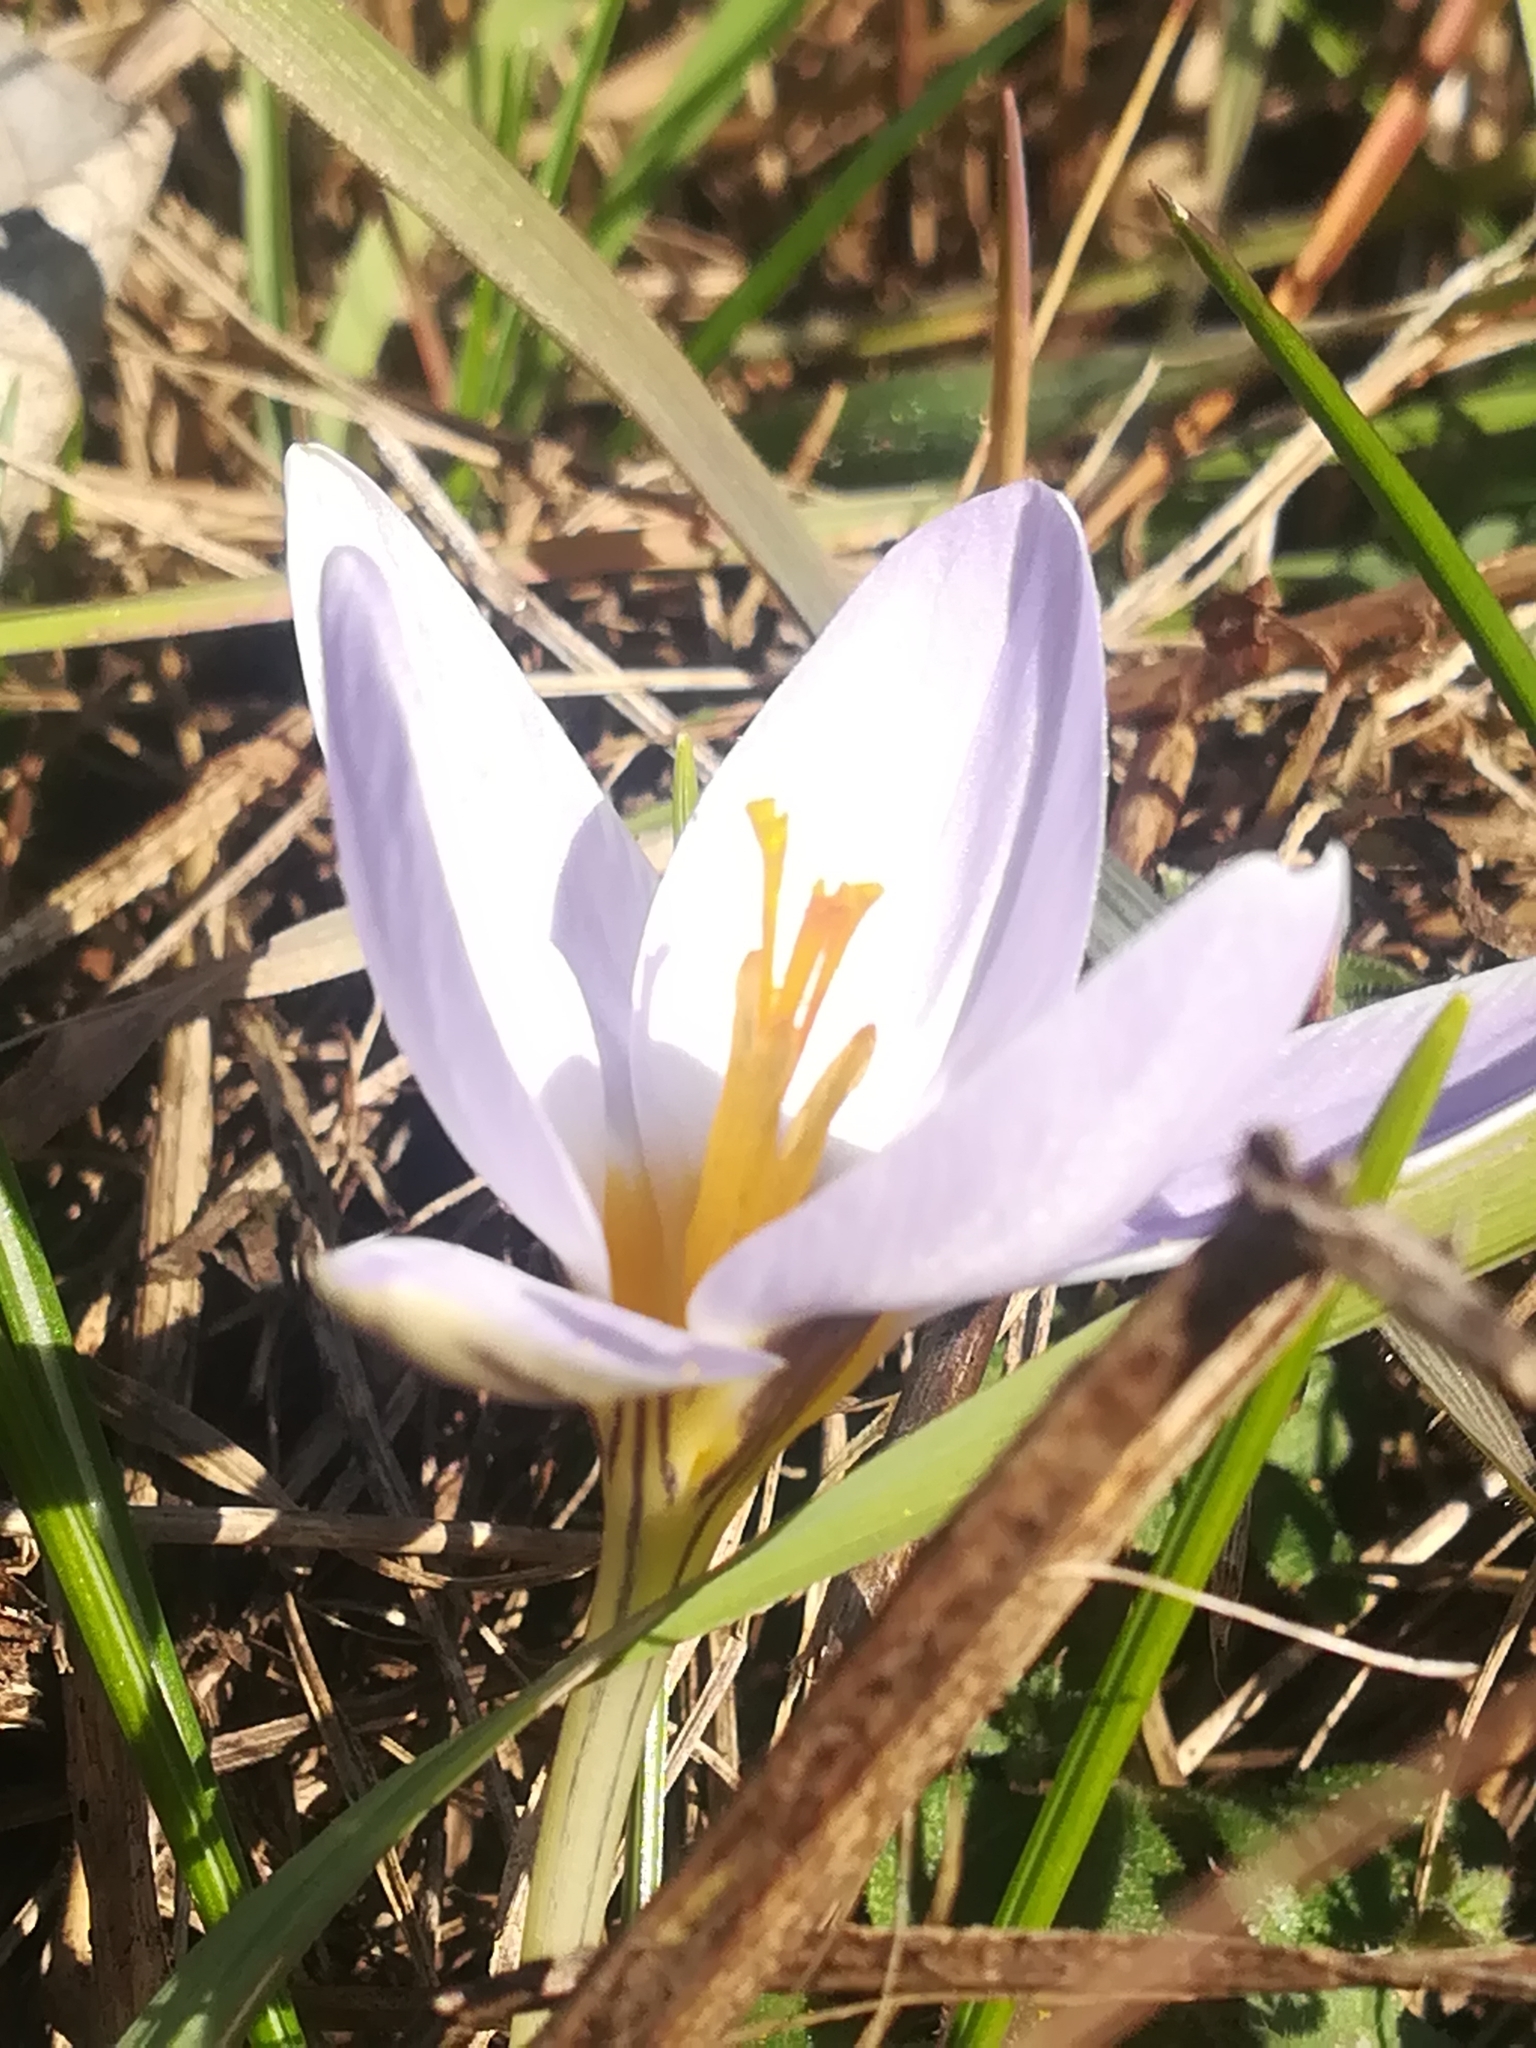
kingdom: Plantae
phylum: Tracheophyta
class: Liliopsida
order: Asparagales
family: Iridaceae
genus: Crocus
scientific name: Crocus biflorus
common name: Silvery crocus
